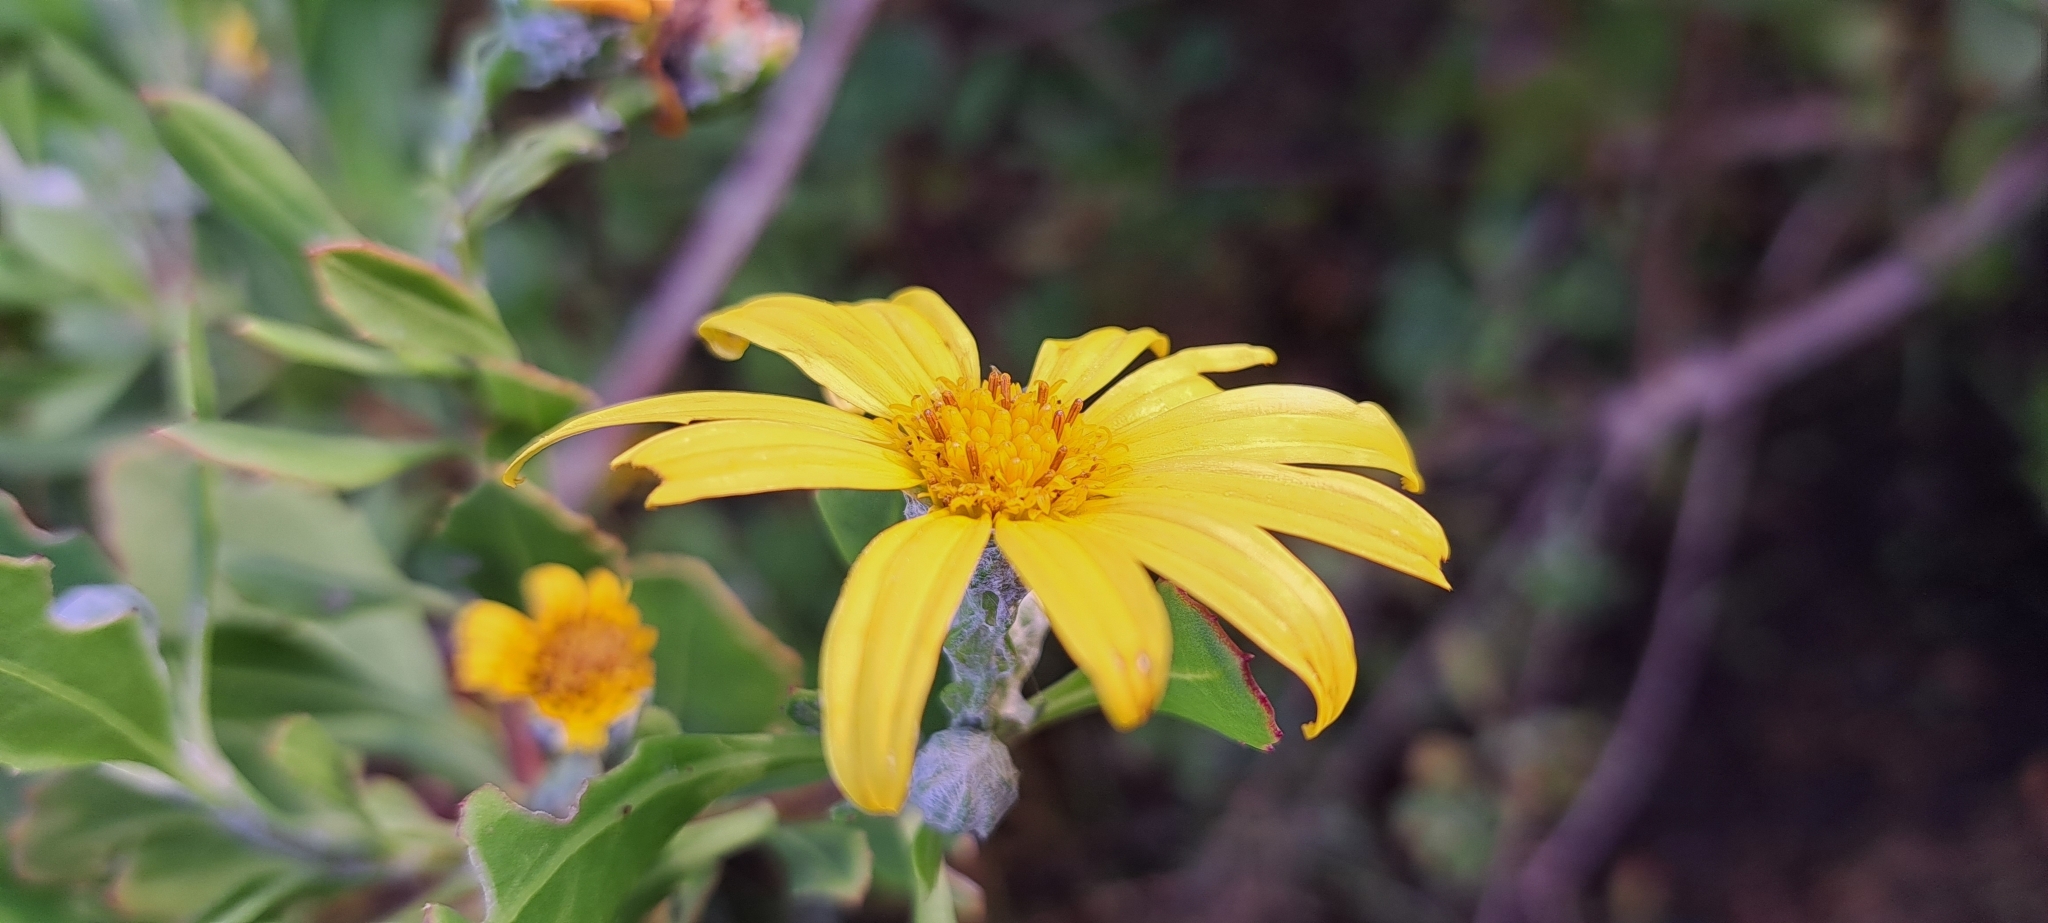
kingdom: Plantae
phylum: Tracheophyta
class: Magnoliopsida
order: Asterales
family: Asteraceae
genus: Osteospermum
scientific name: Osteospermum moniliferum
